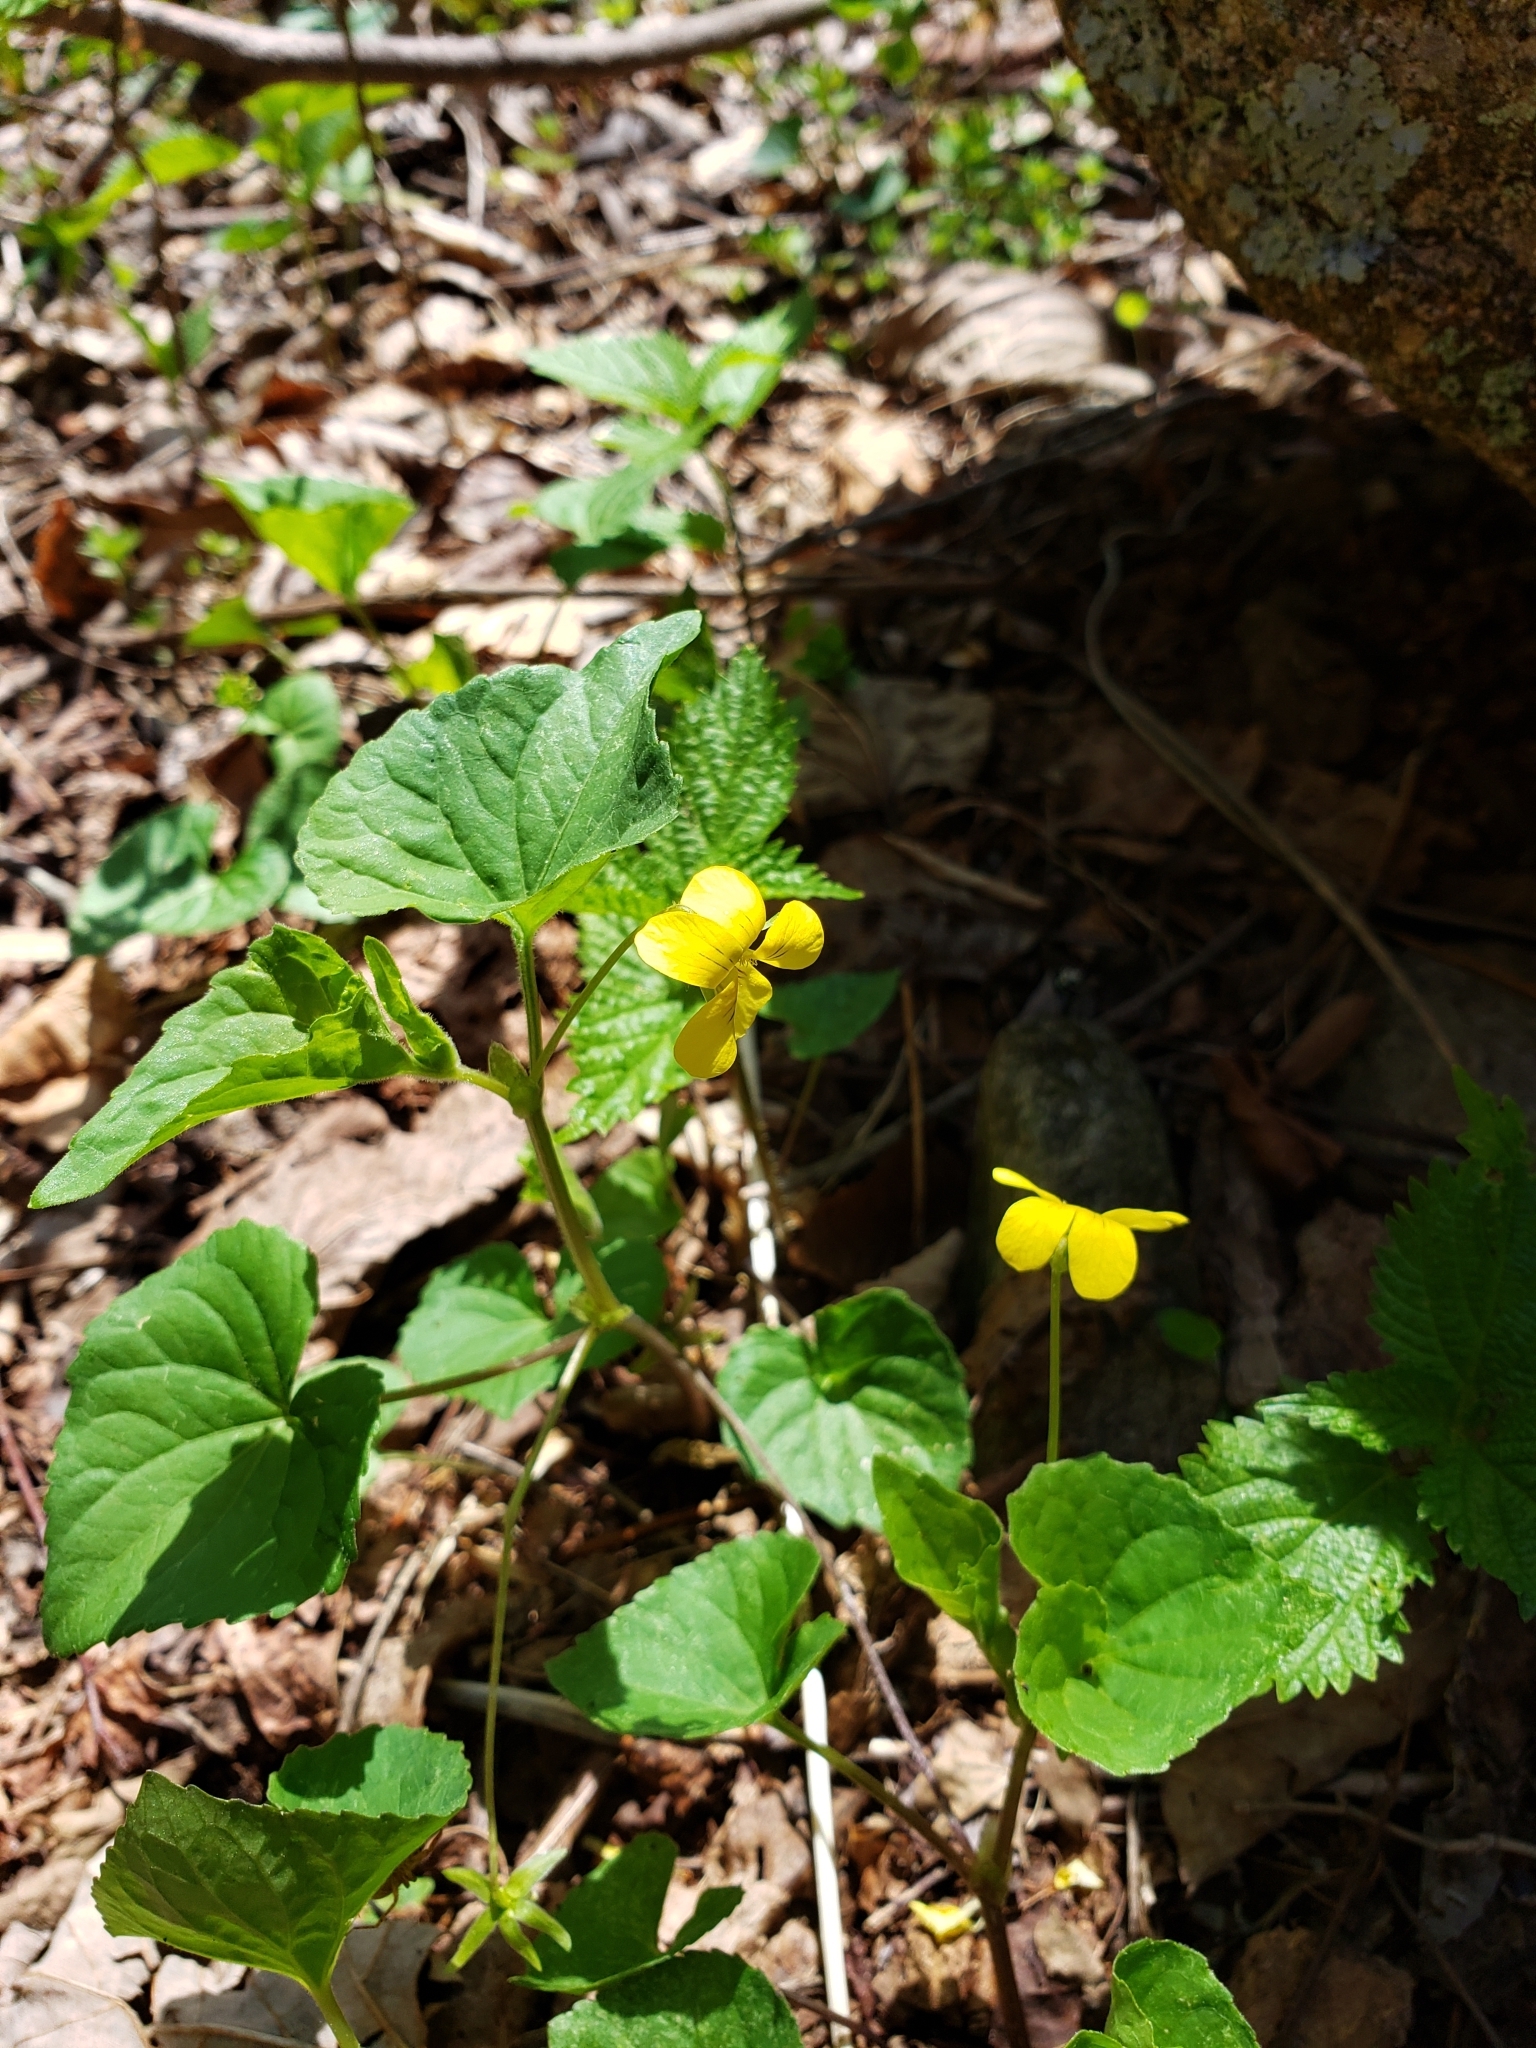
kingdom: Plantae
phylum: Tracheophyta
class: Magnoliopsida
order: Malpighiales
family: Violaceae
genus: Viola
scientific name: Viola eriocarpa
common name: Smooth yellow violet
